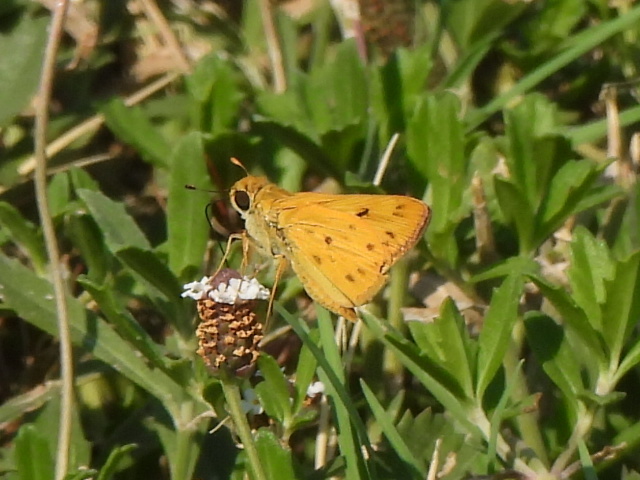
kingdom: Animalia
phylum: Arthropoda
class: Insecta
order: Lepidoptera
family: Hesperiidae
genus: Hylephila
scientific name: Hylephila phyleus
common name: Fiery skipper
